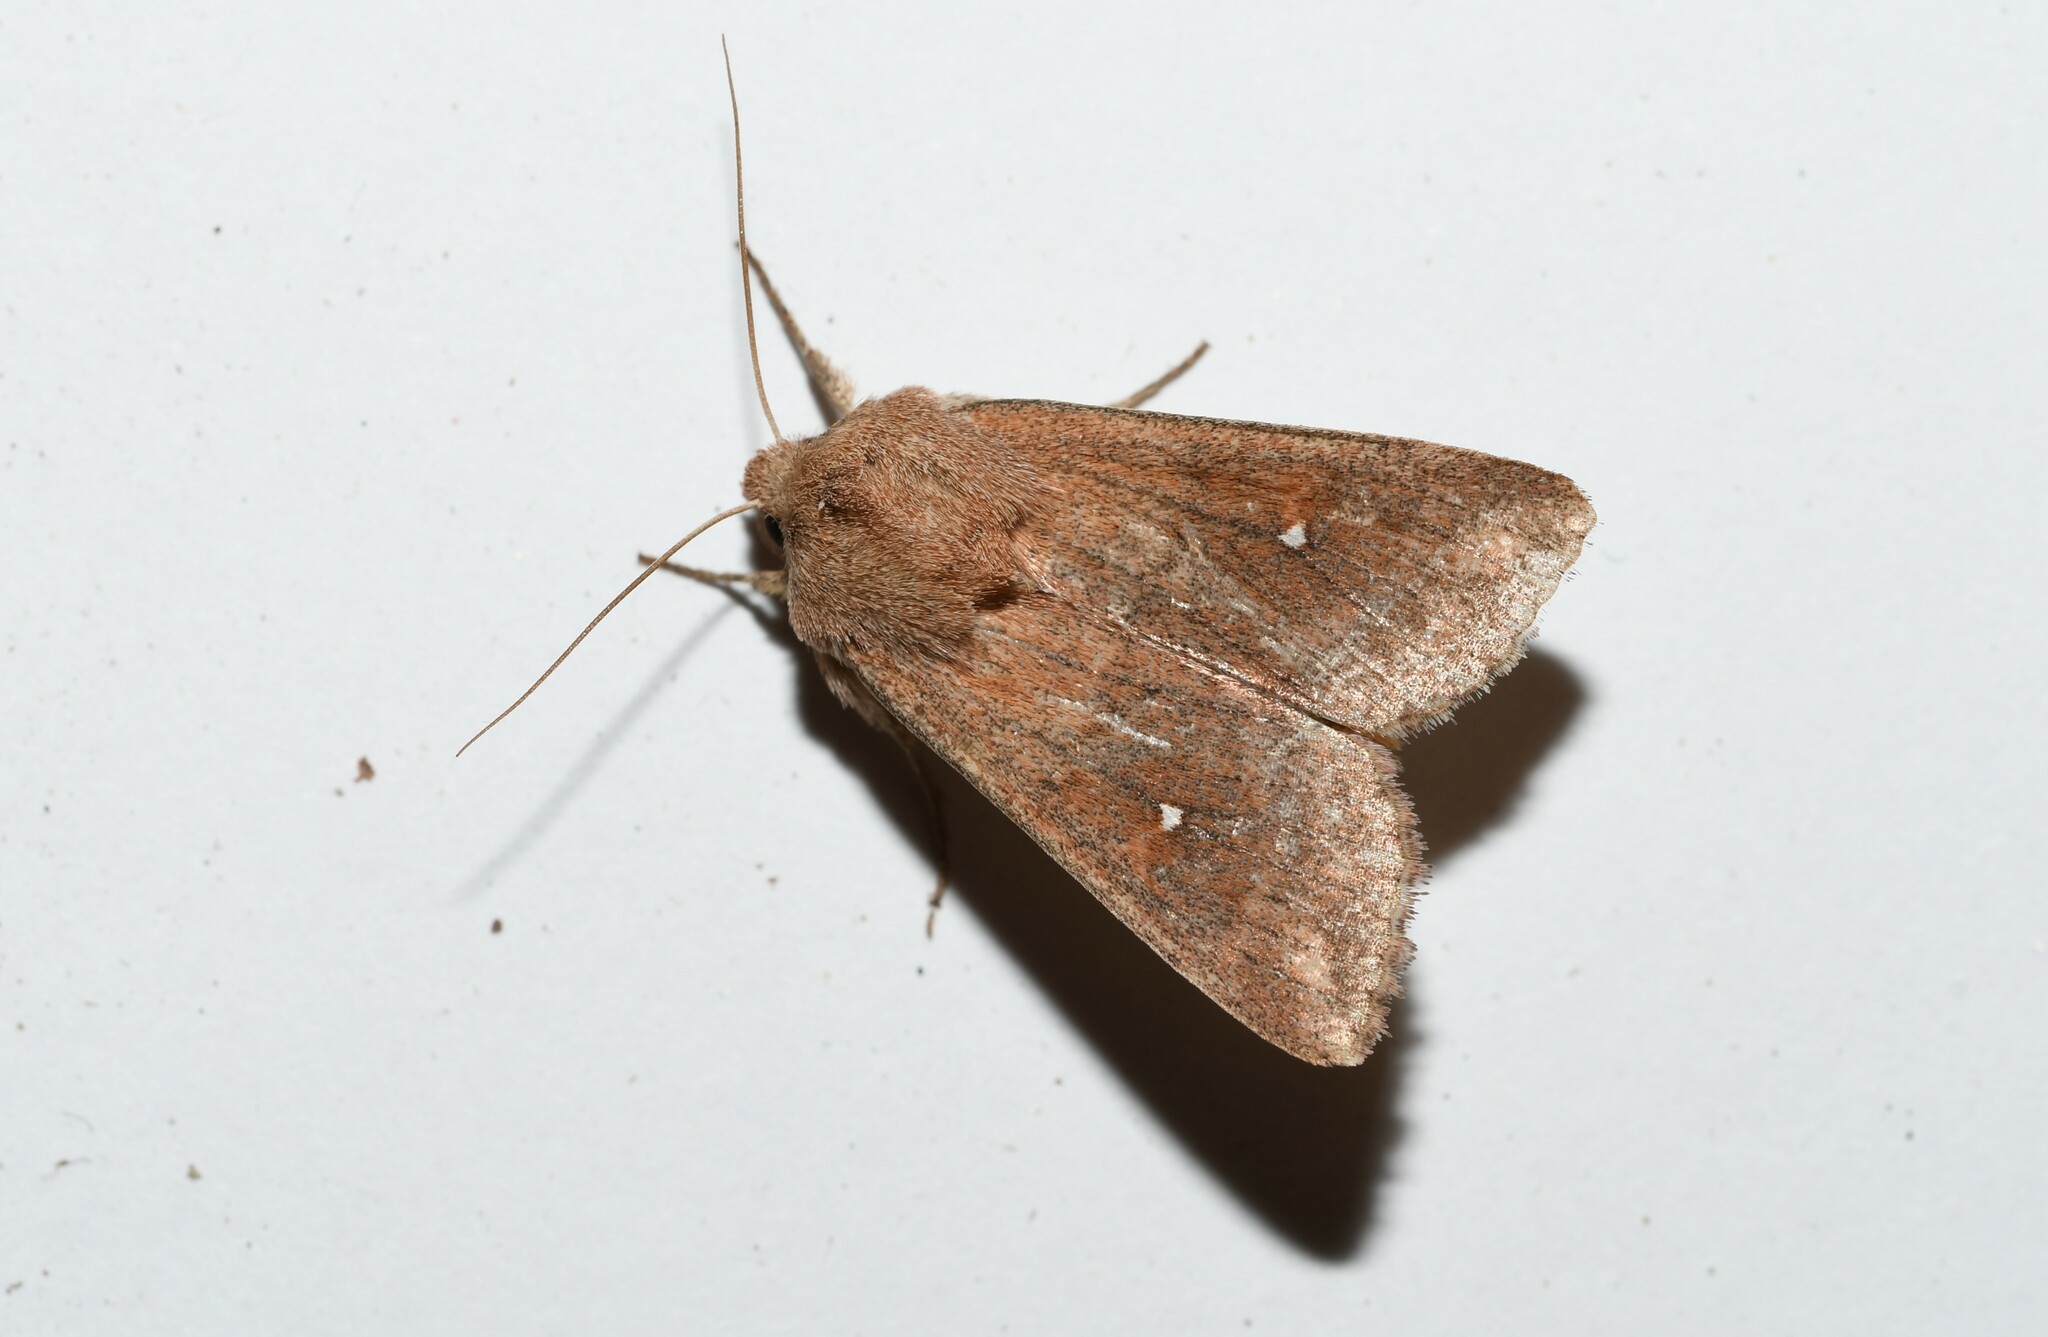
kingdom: Animalia
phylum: Arthropoda
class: Insecta
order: Lepidoptera
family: Noctuidae
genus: Mythimna
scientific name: Mythimna albipuncta
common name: White-point
